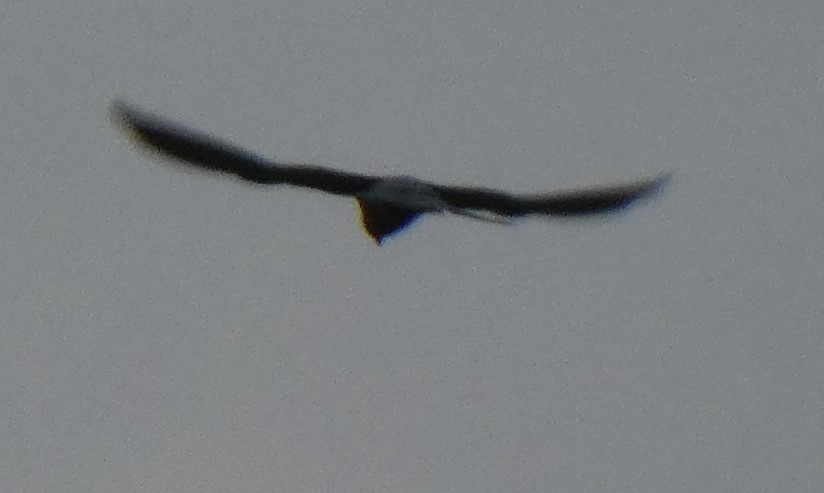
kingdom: Animalia
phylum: Chordata
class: Aves
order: Falconiformes
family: Falconidae
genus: Falco
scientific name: Falco tinnunculus
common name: Common kestrel
